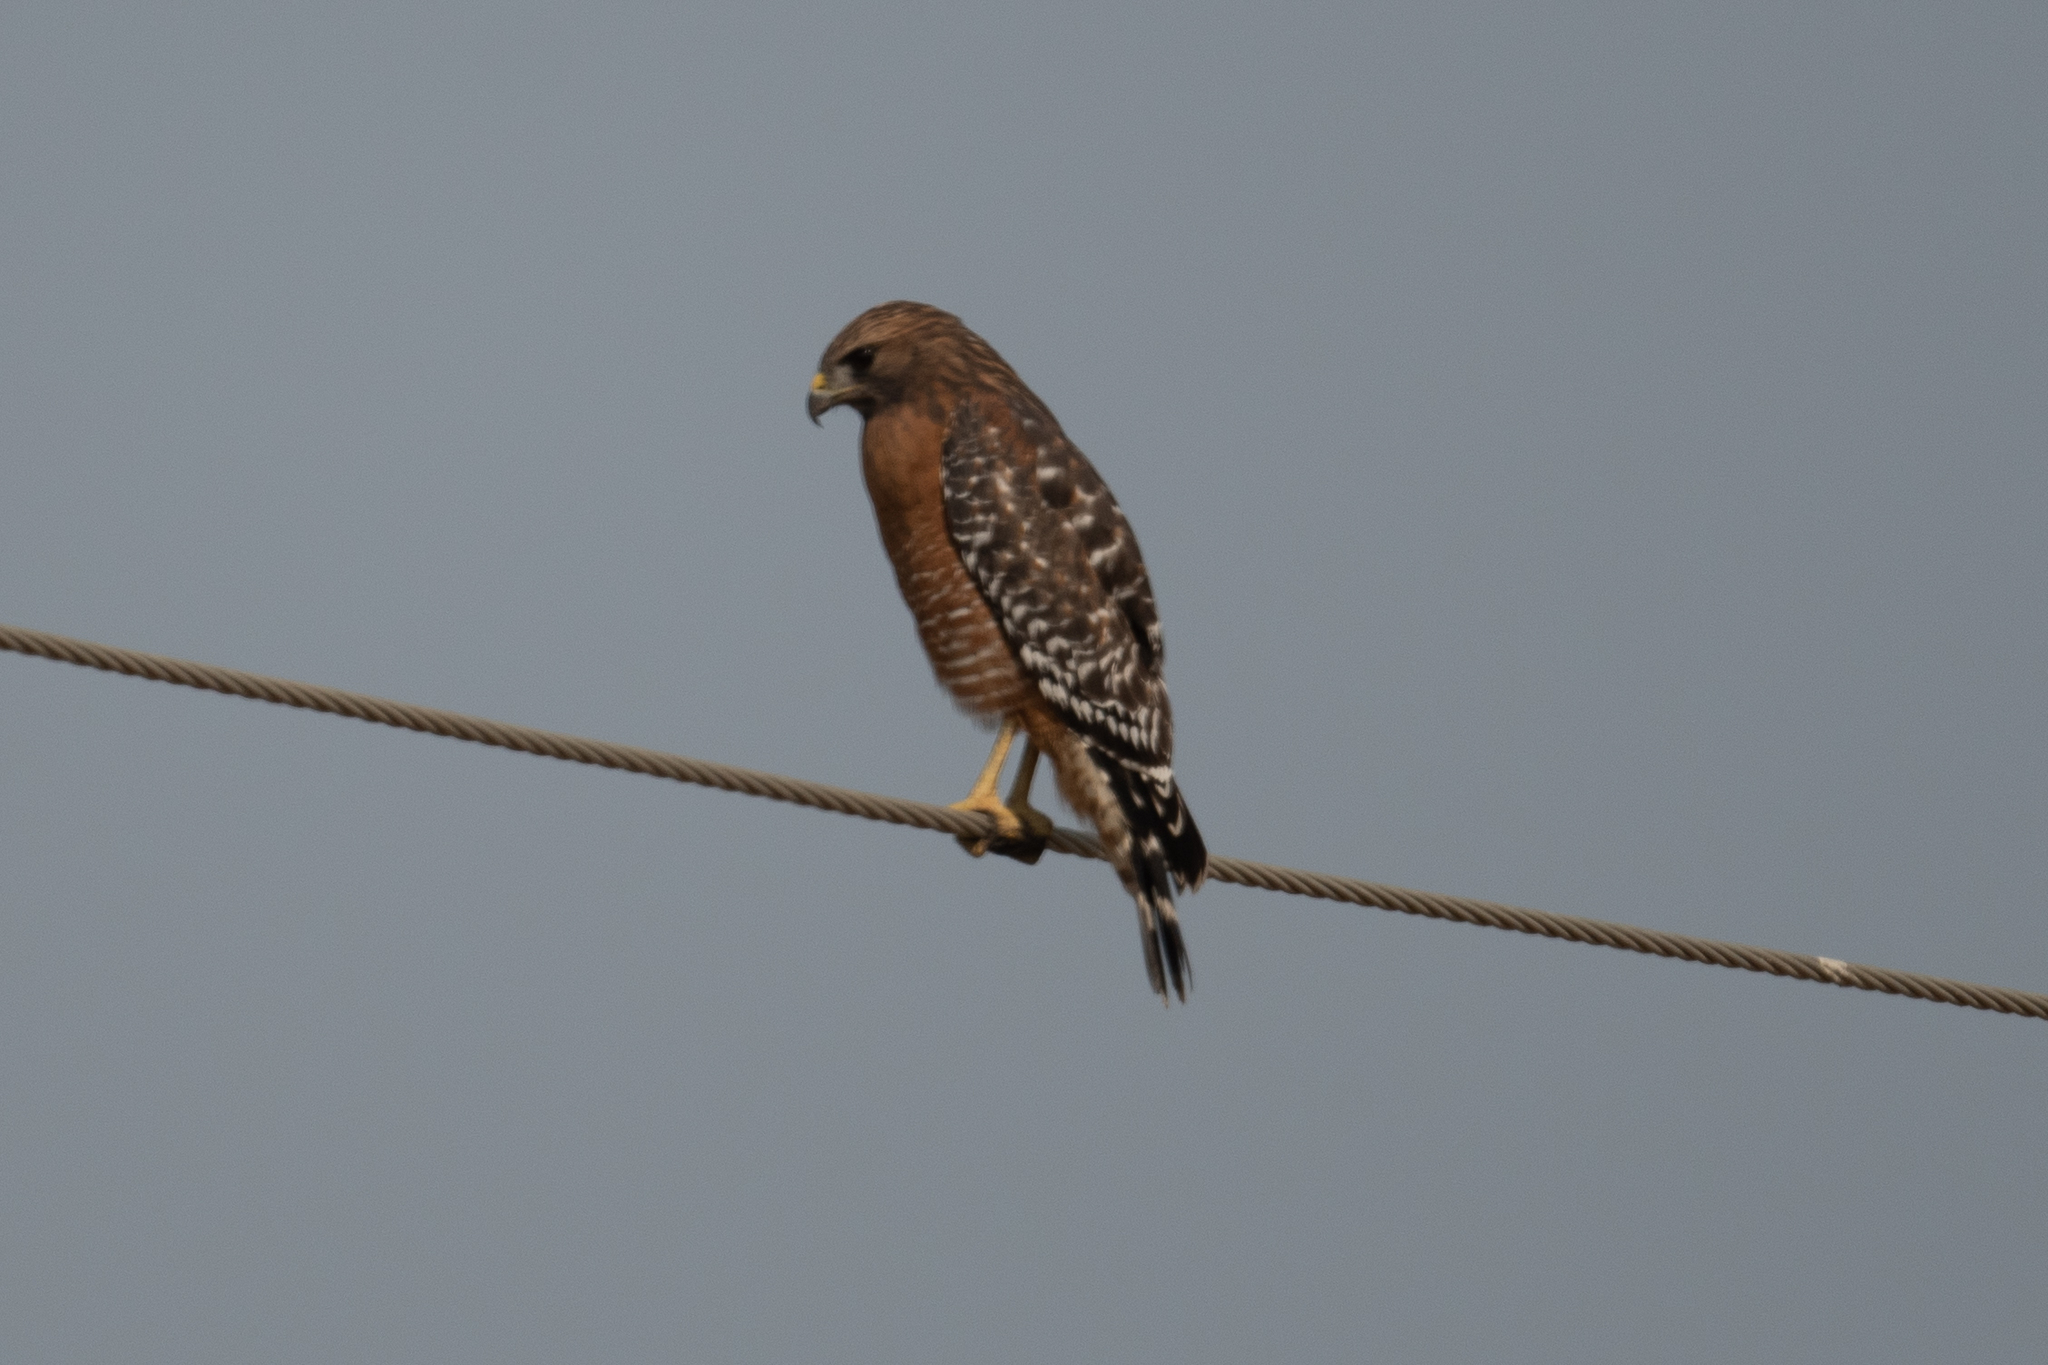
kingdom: Animalia
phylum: Chordata
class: Aves
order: Accipitriformes
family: Accipitridae
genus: Buteo
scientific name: Buteo lineatus
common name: Red-shouldered hawk
